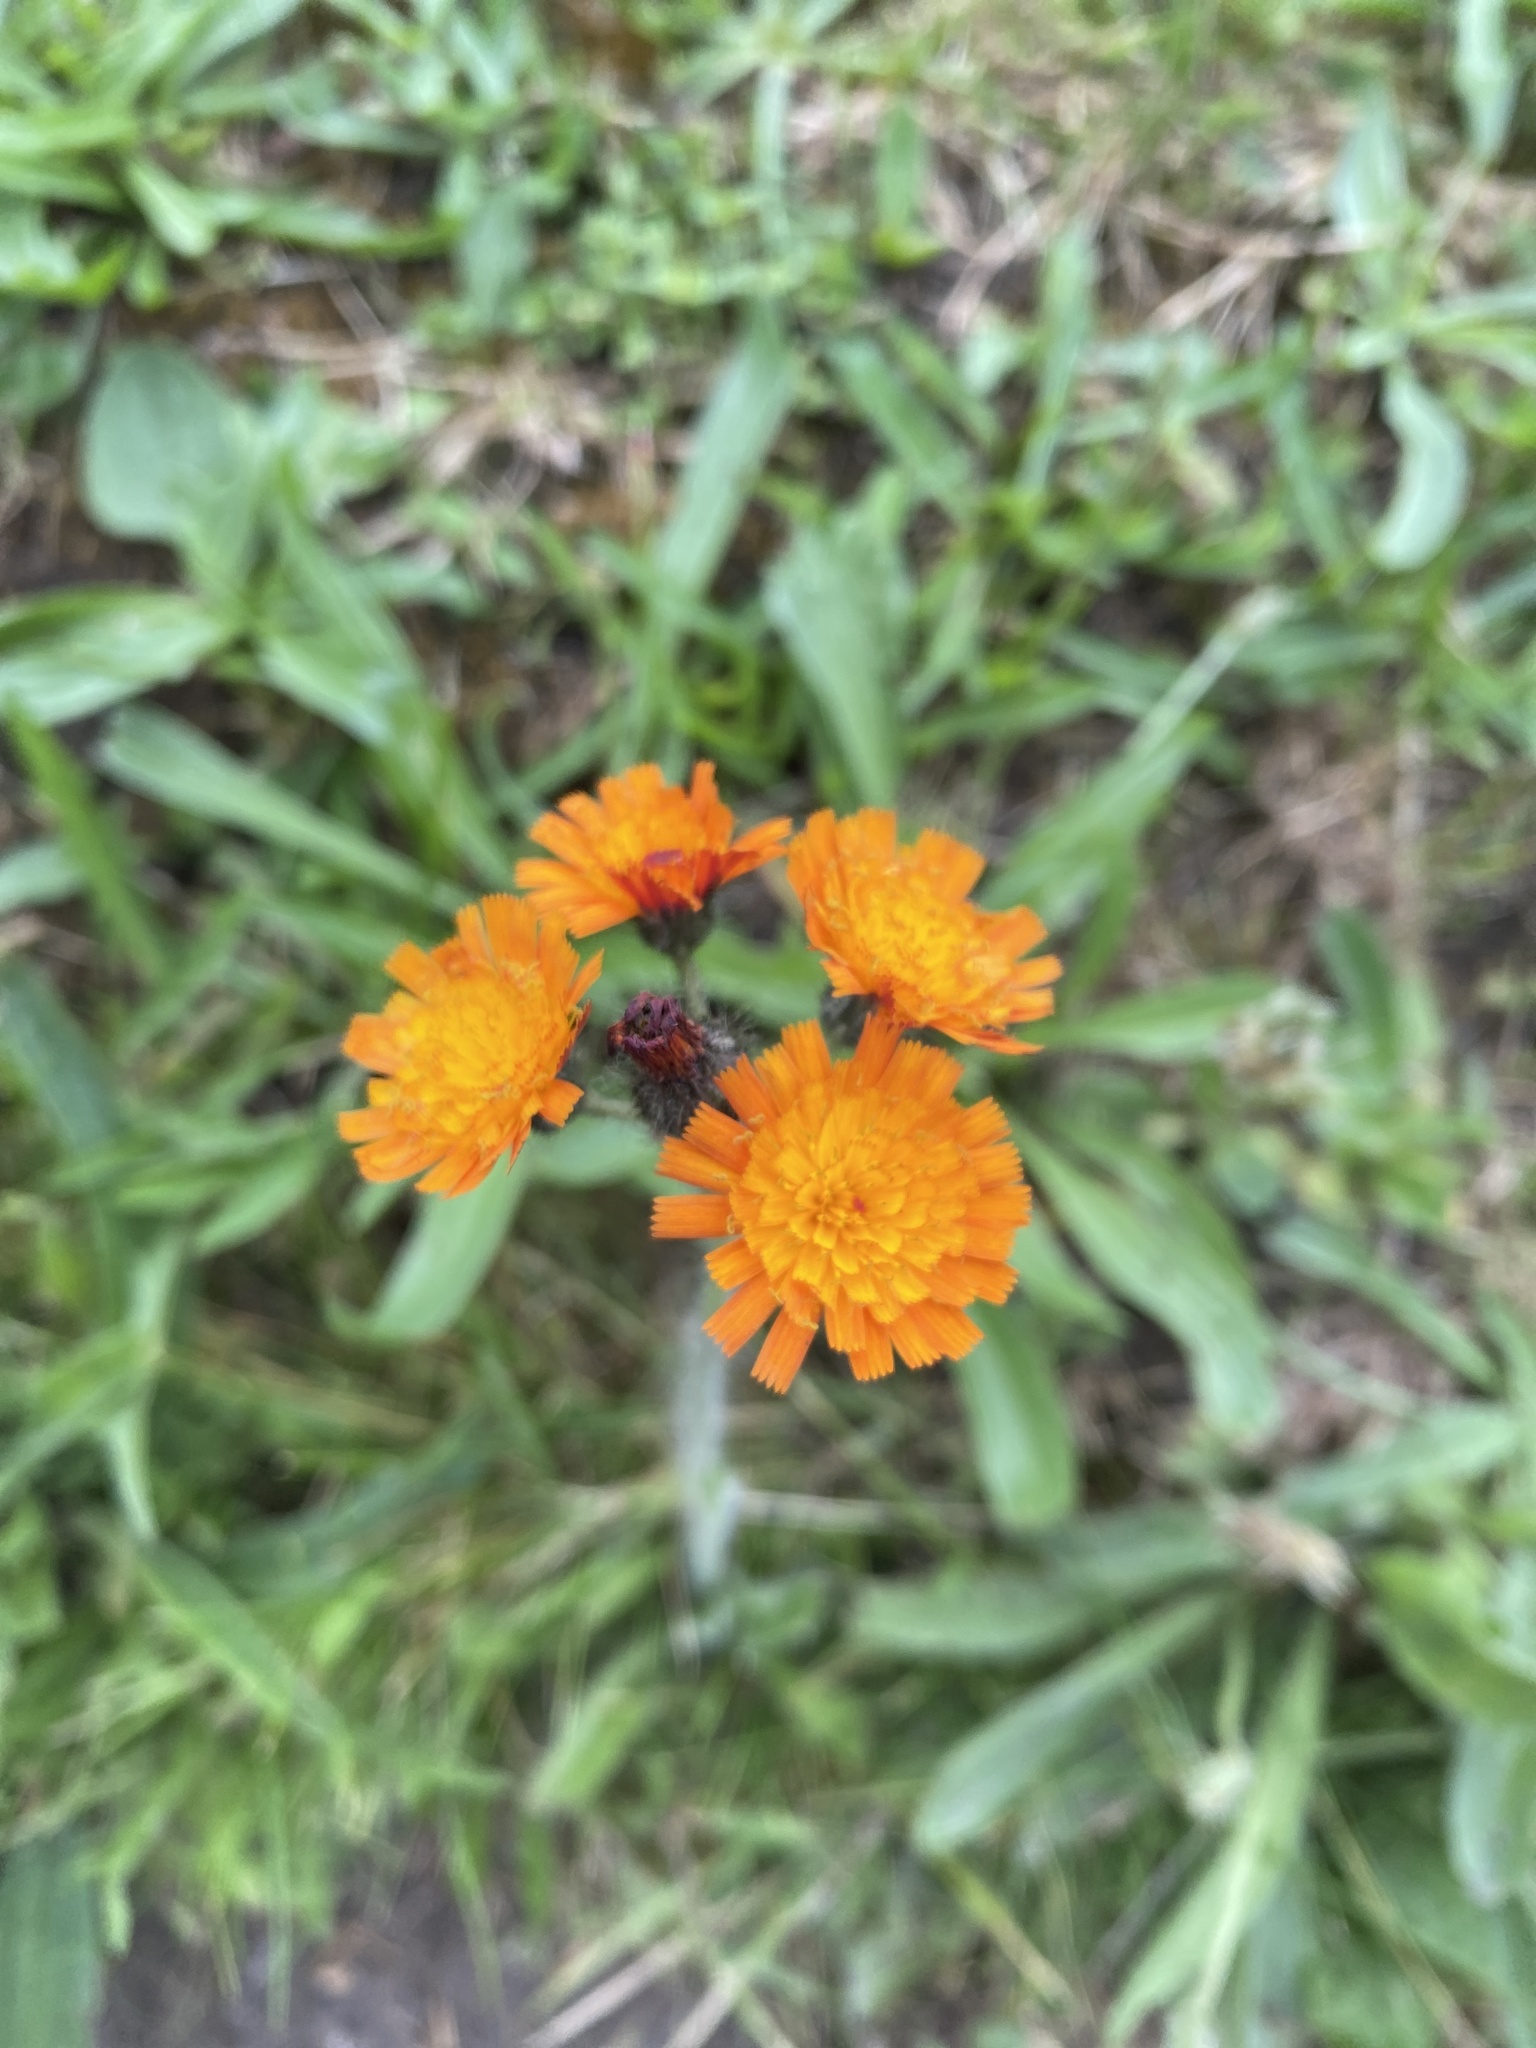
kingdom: Plantae
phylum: Tracheophyta
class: Magnoliopsida
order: Asterales
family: Asteraceae
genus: Pilosella
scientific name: Pilosella aurantiaca
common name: Fox-and-cubs
